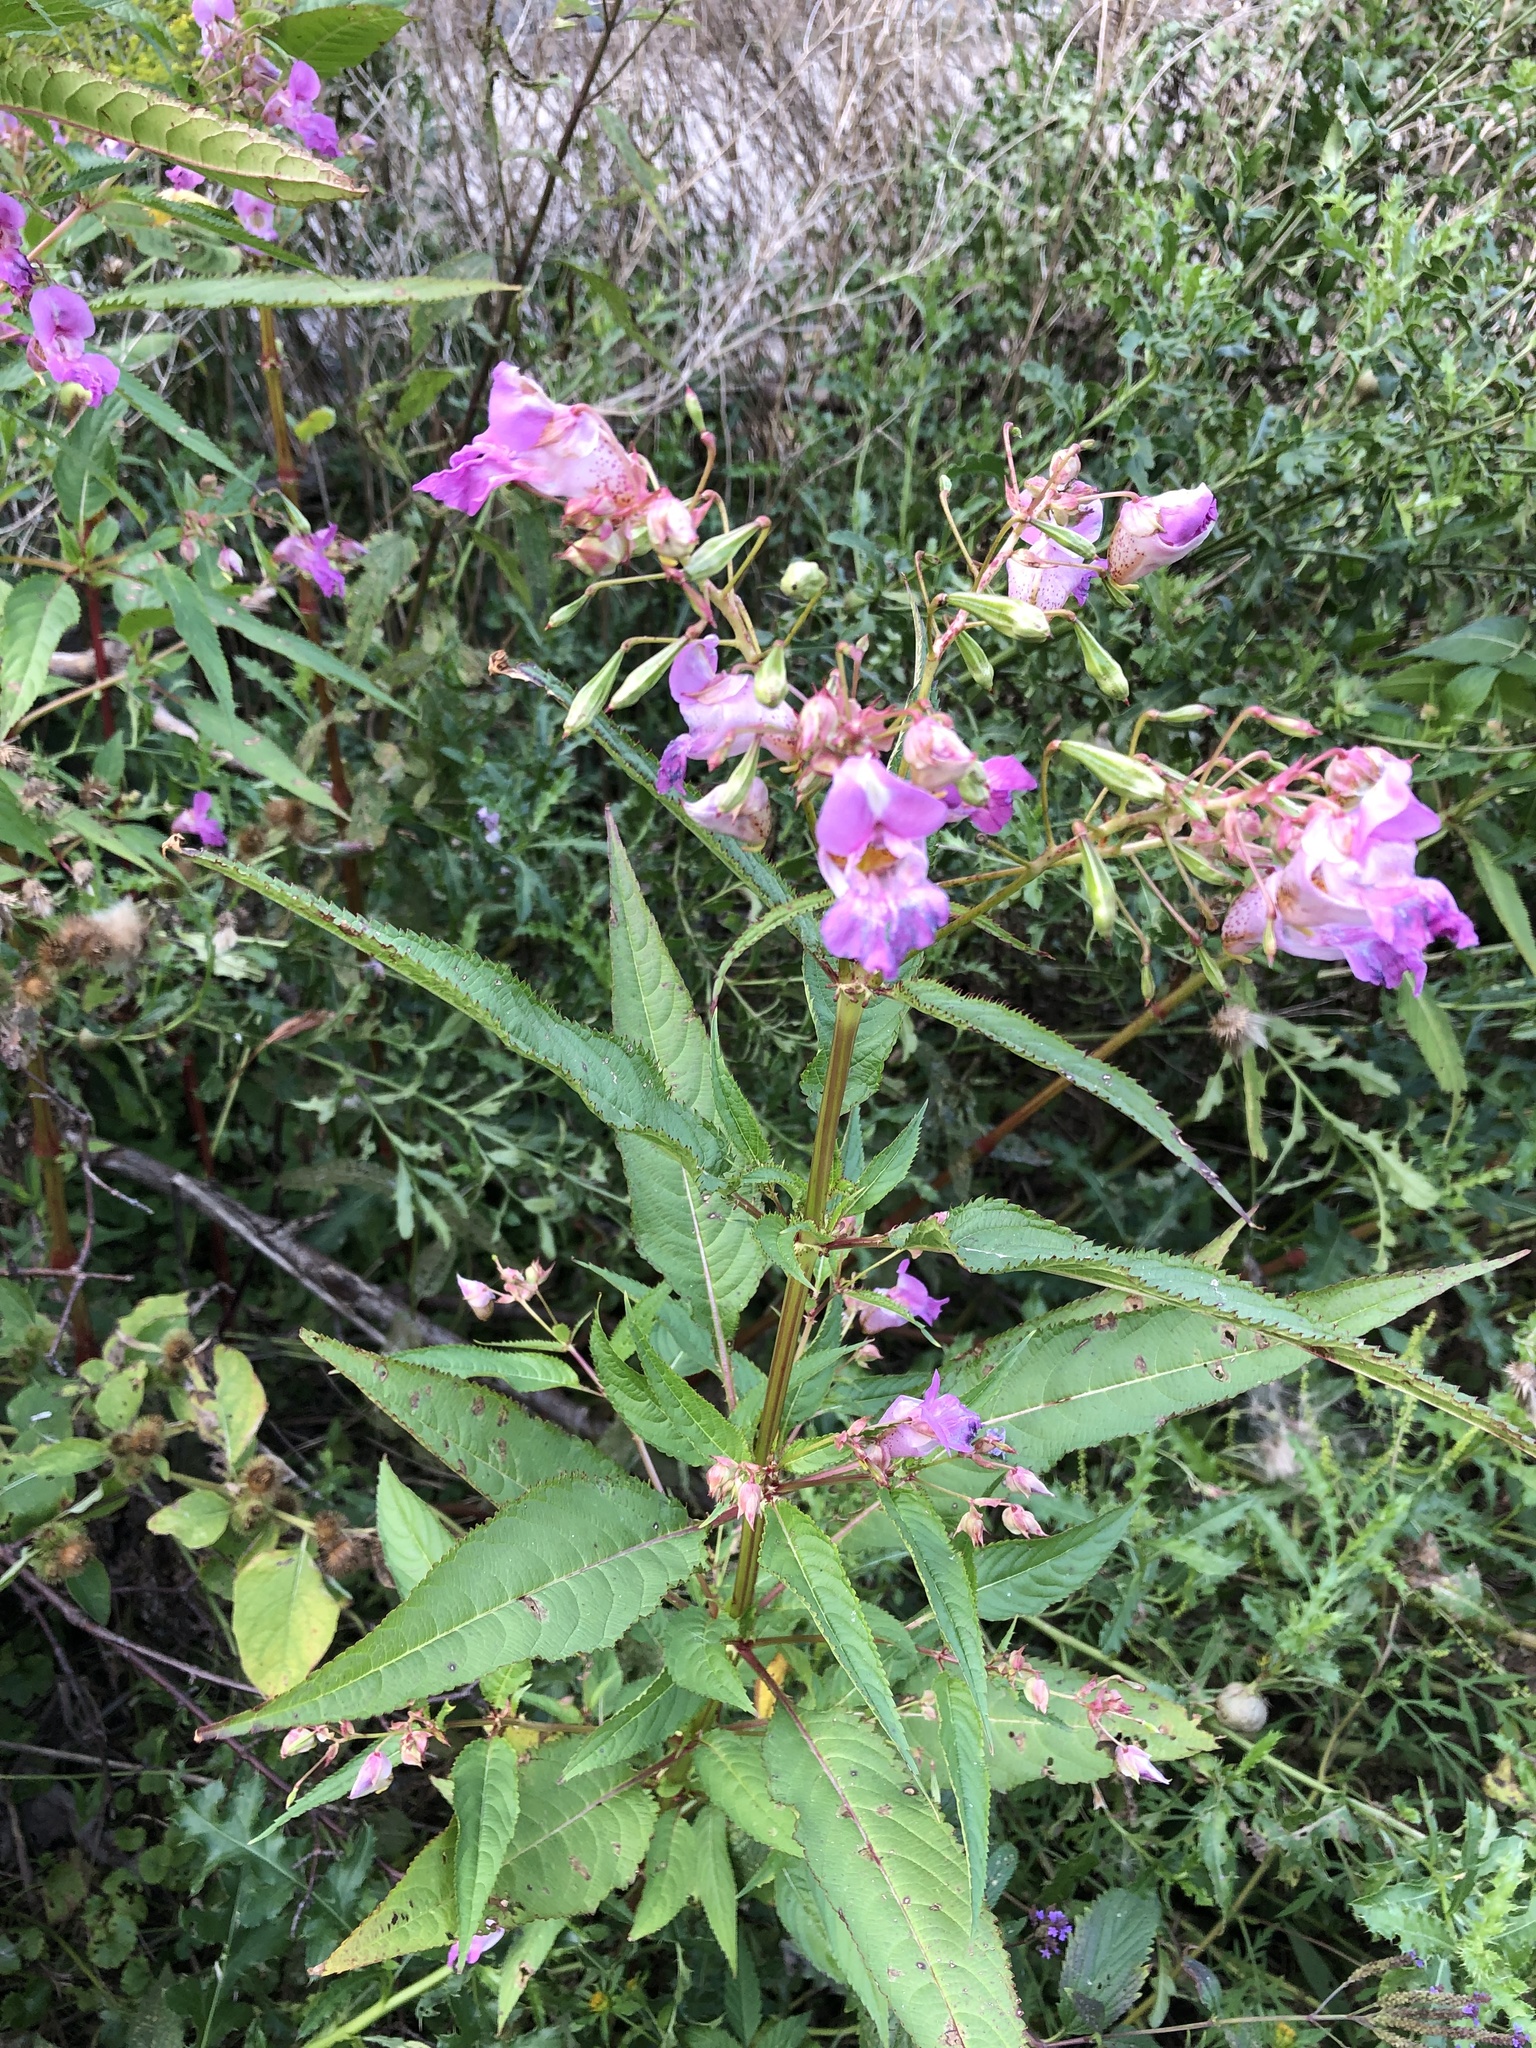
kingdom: Plantae
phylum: Tracheophyta
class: Magnoliopsida
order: Ericales
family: Balsaminaceae
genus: Impatiens
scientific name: Impatiens glandulifera
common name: Himalayan balsam
